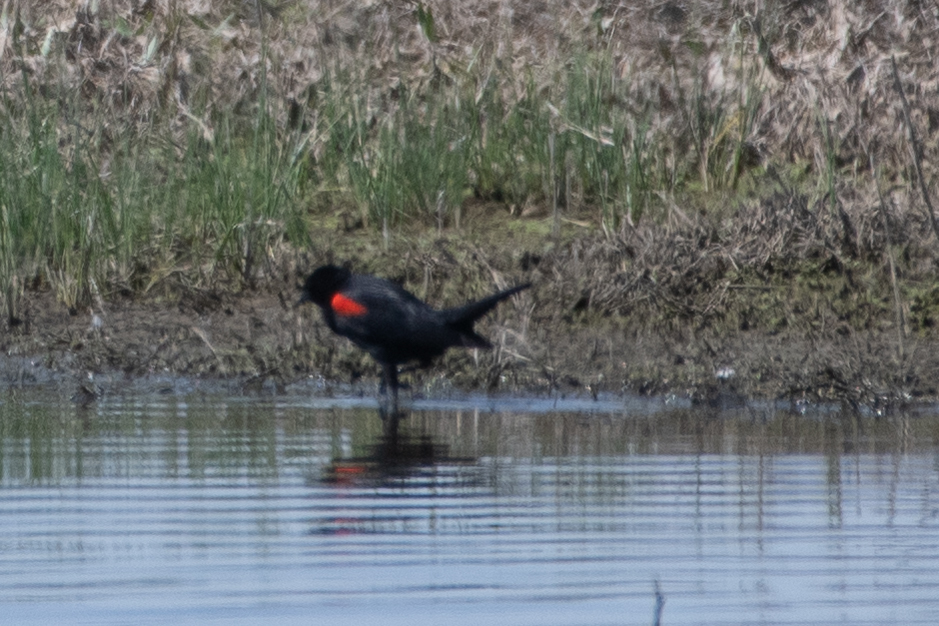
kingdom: Animalia
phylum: Chordata
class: Aves
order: Passeriformes
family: Icteridae
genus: Agelaius
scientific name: Agelaius phoeniceus
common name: Red-winged blackbird
